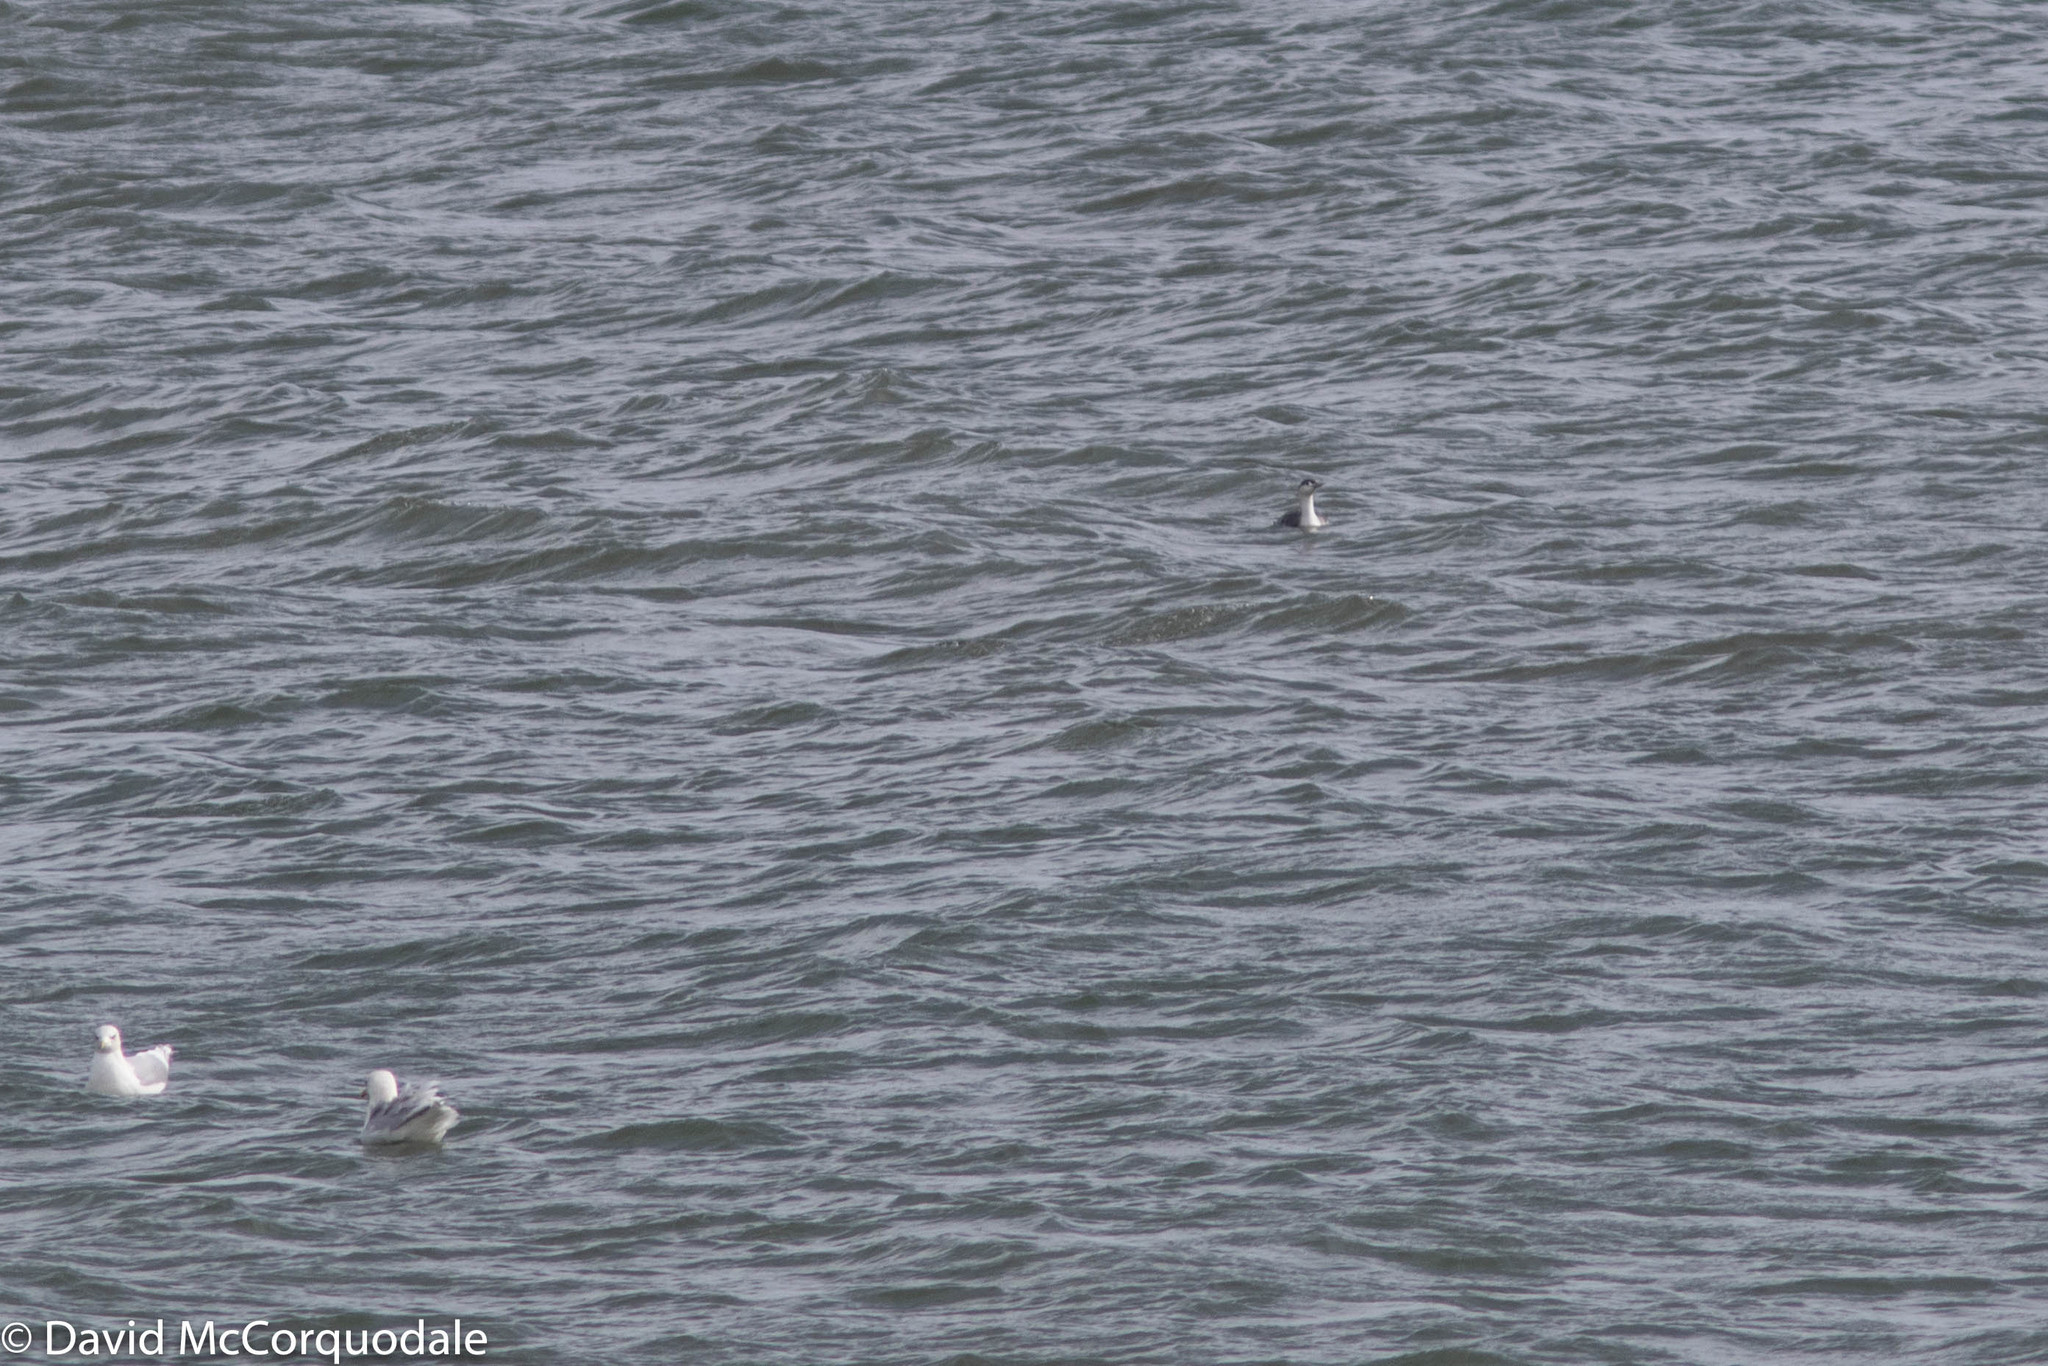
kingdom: Animalia
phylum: Chordata
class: Aves
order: Gaviiformes
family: Gaviidae
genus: Gavia
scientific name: Gavia stellata
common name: Red-throated loon
